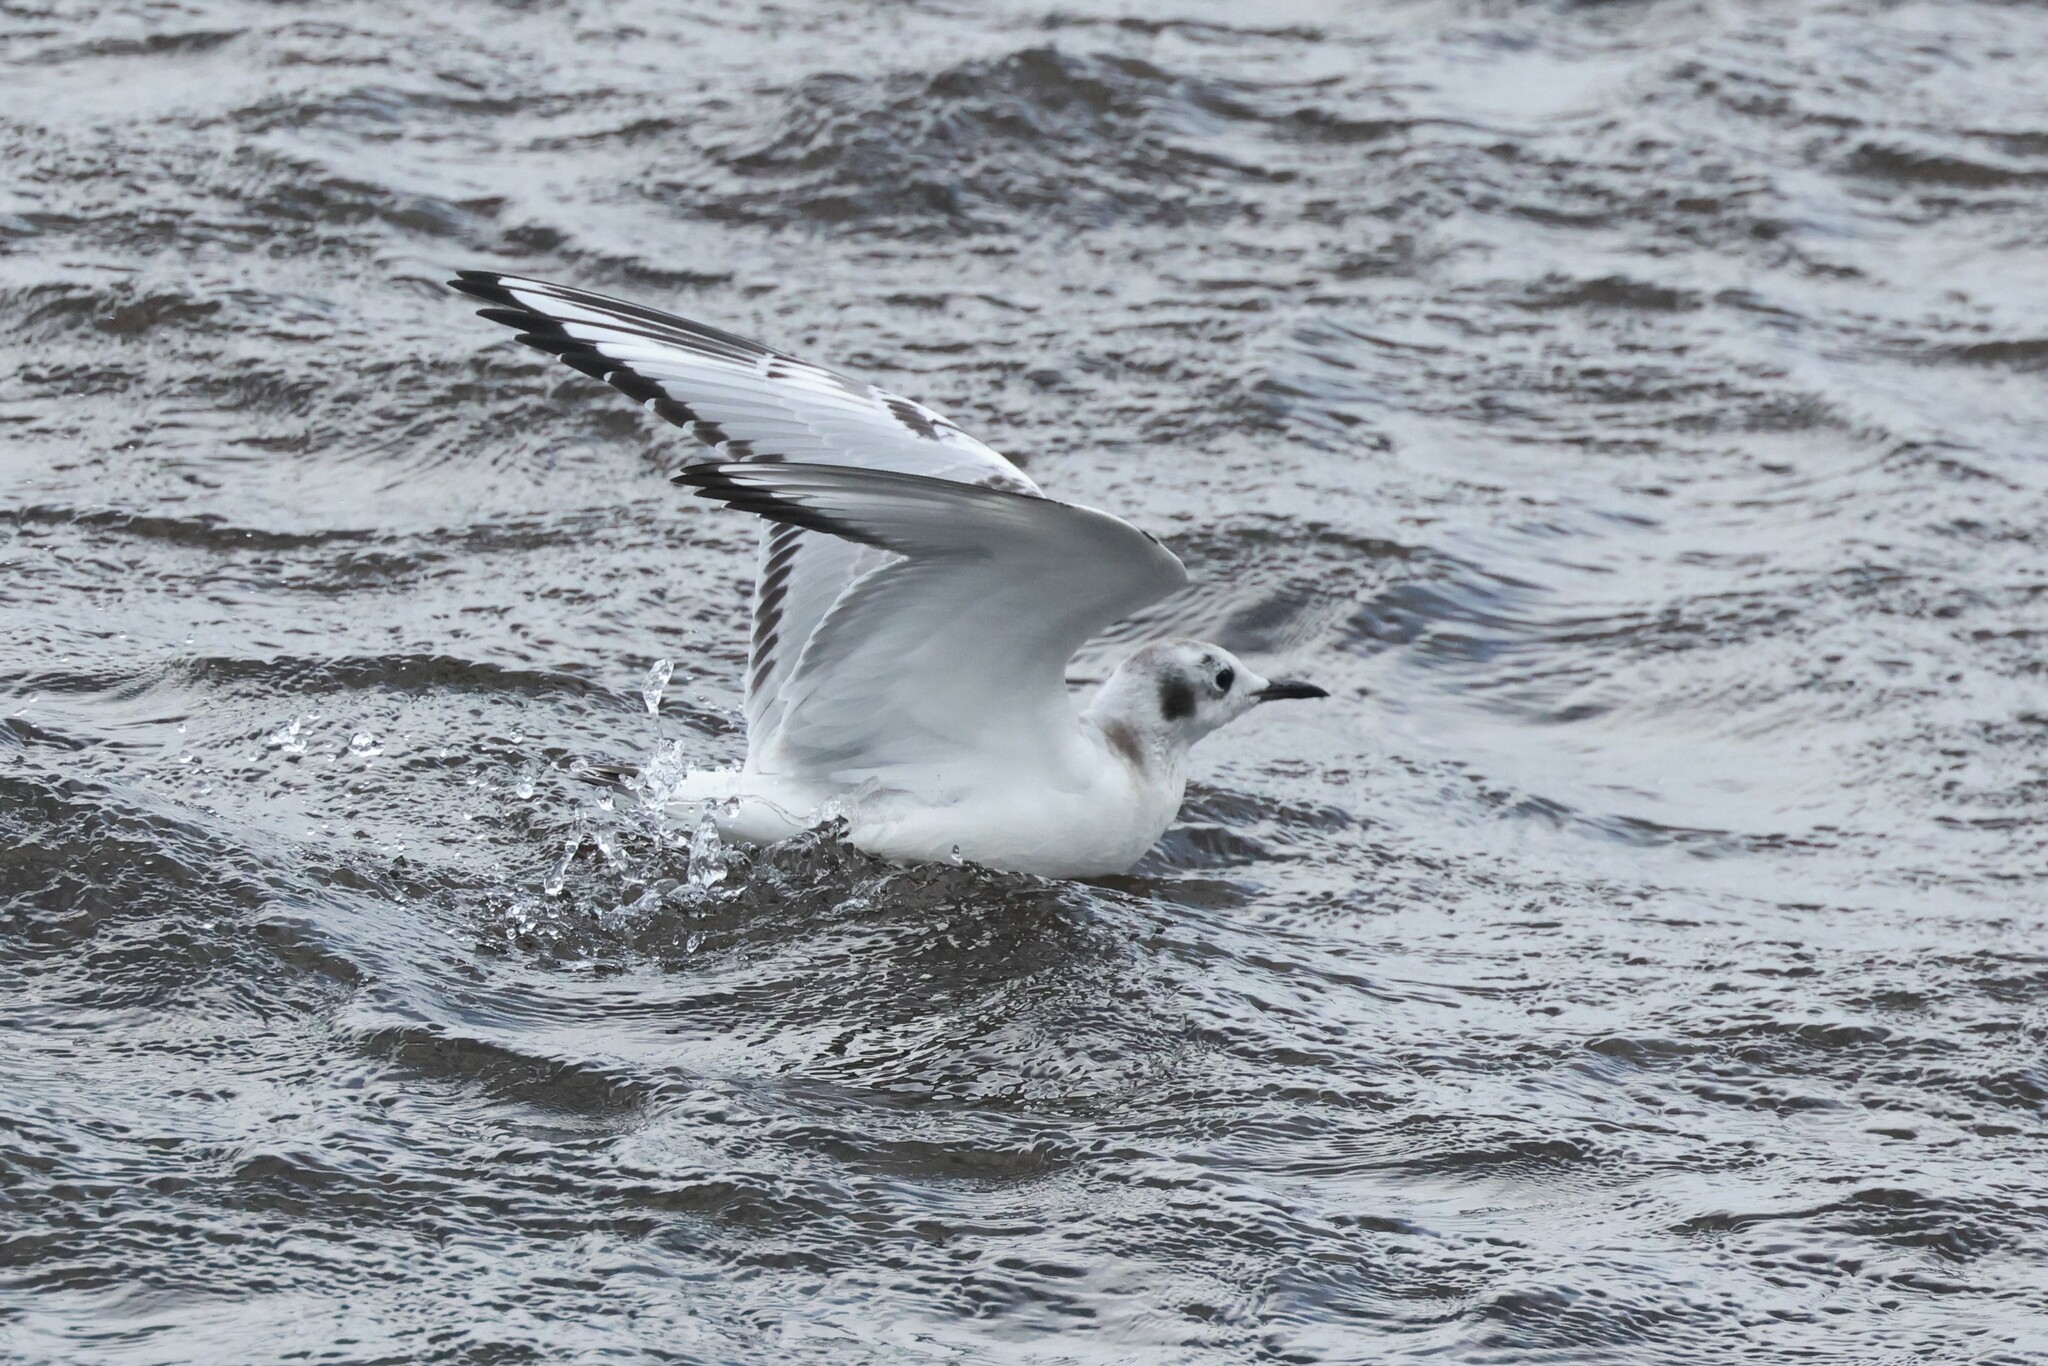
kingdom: Animalia
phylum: Chordata
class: Aves
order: Charadriiformes
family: Laridae
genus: Chroicocephalus
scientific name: Chroicocephalus philadelphia
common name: Bonaparte's gull
